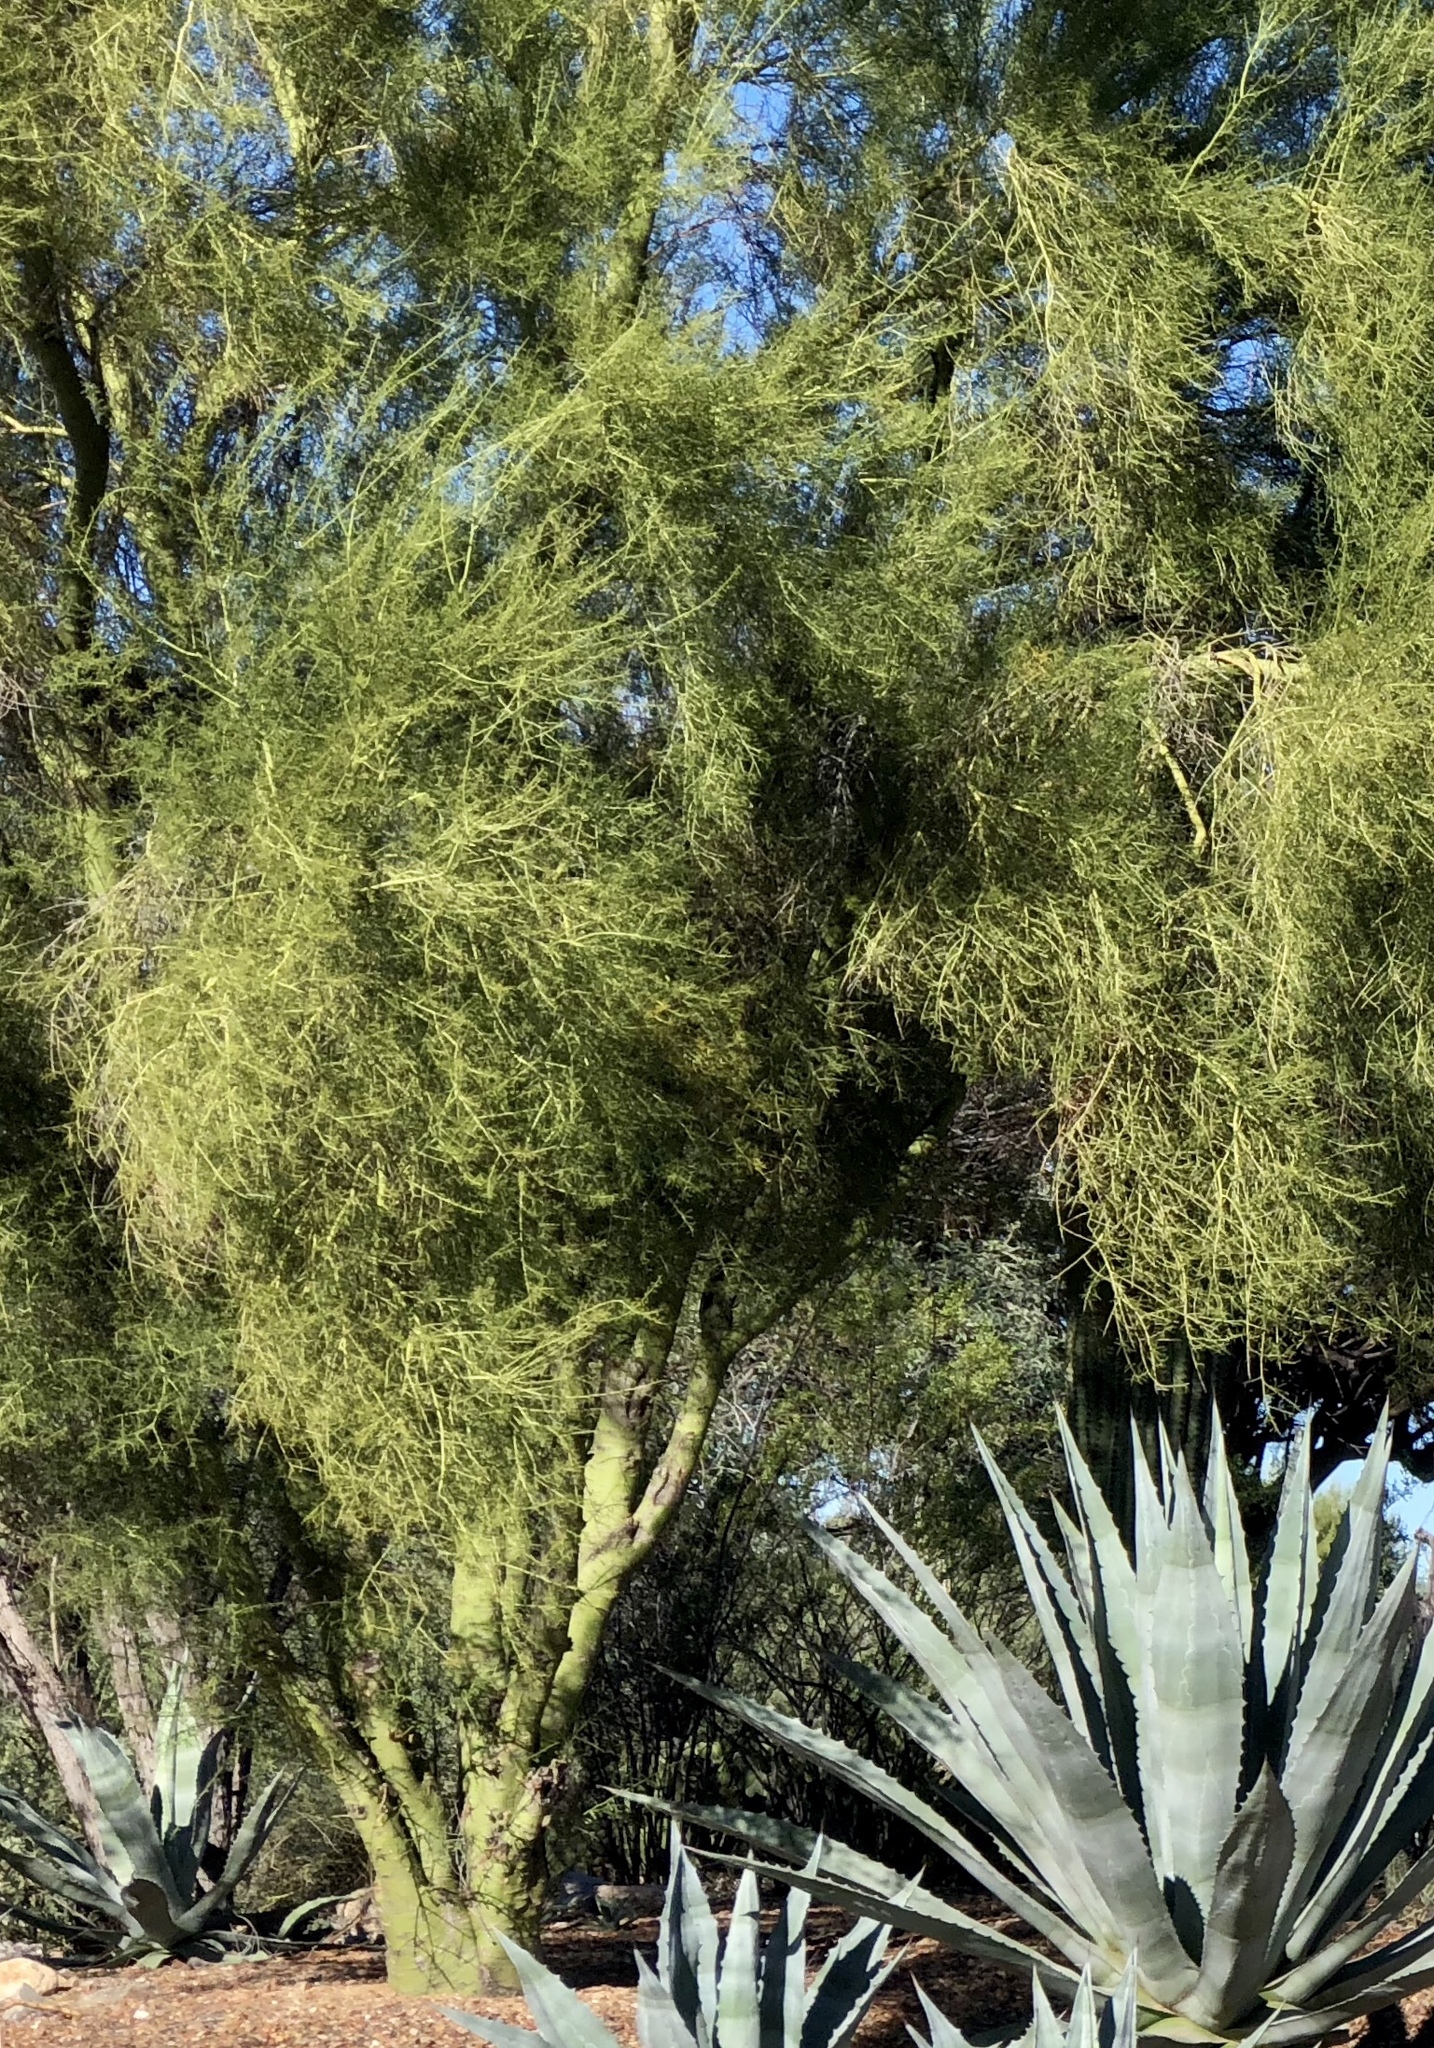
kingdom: Plantae
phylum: Tracheophyta
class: Magnoliopsida
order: Fabales
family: Fabaceae
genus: Parkinsonia
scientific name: Parkinsonia microphylla
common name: Yellow paloverde
